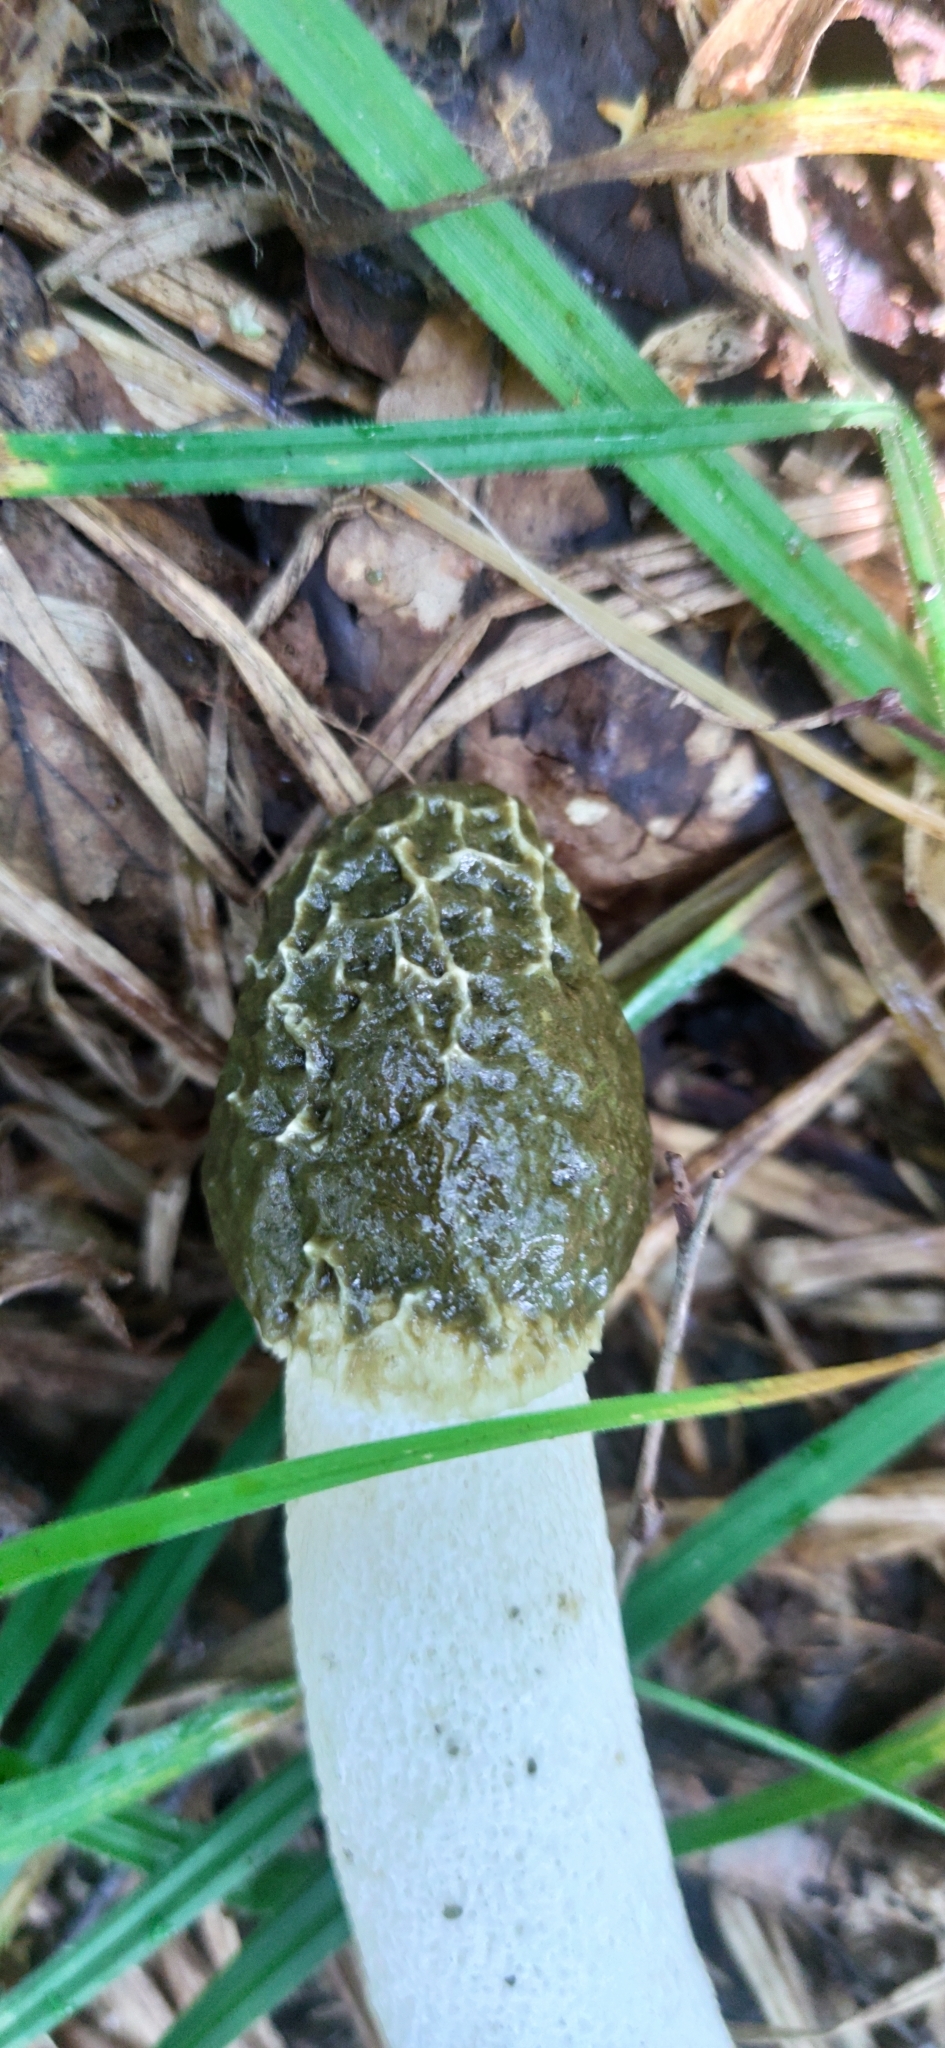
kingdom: Fungi
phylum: Basidiomycota
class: Agaricomycetes
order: Phallales
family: Phallaceae
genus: Phallus
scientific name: Phallus impudicus
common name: Common stinkhorn
